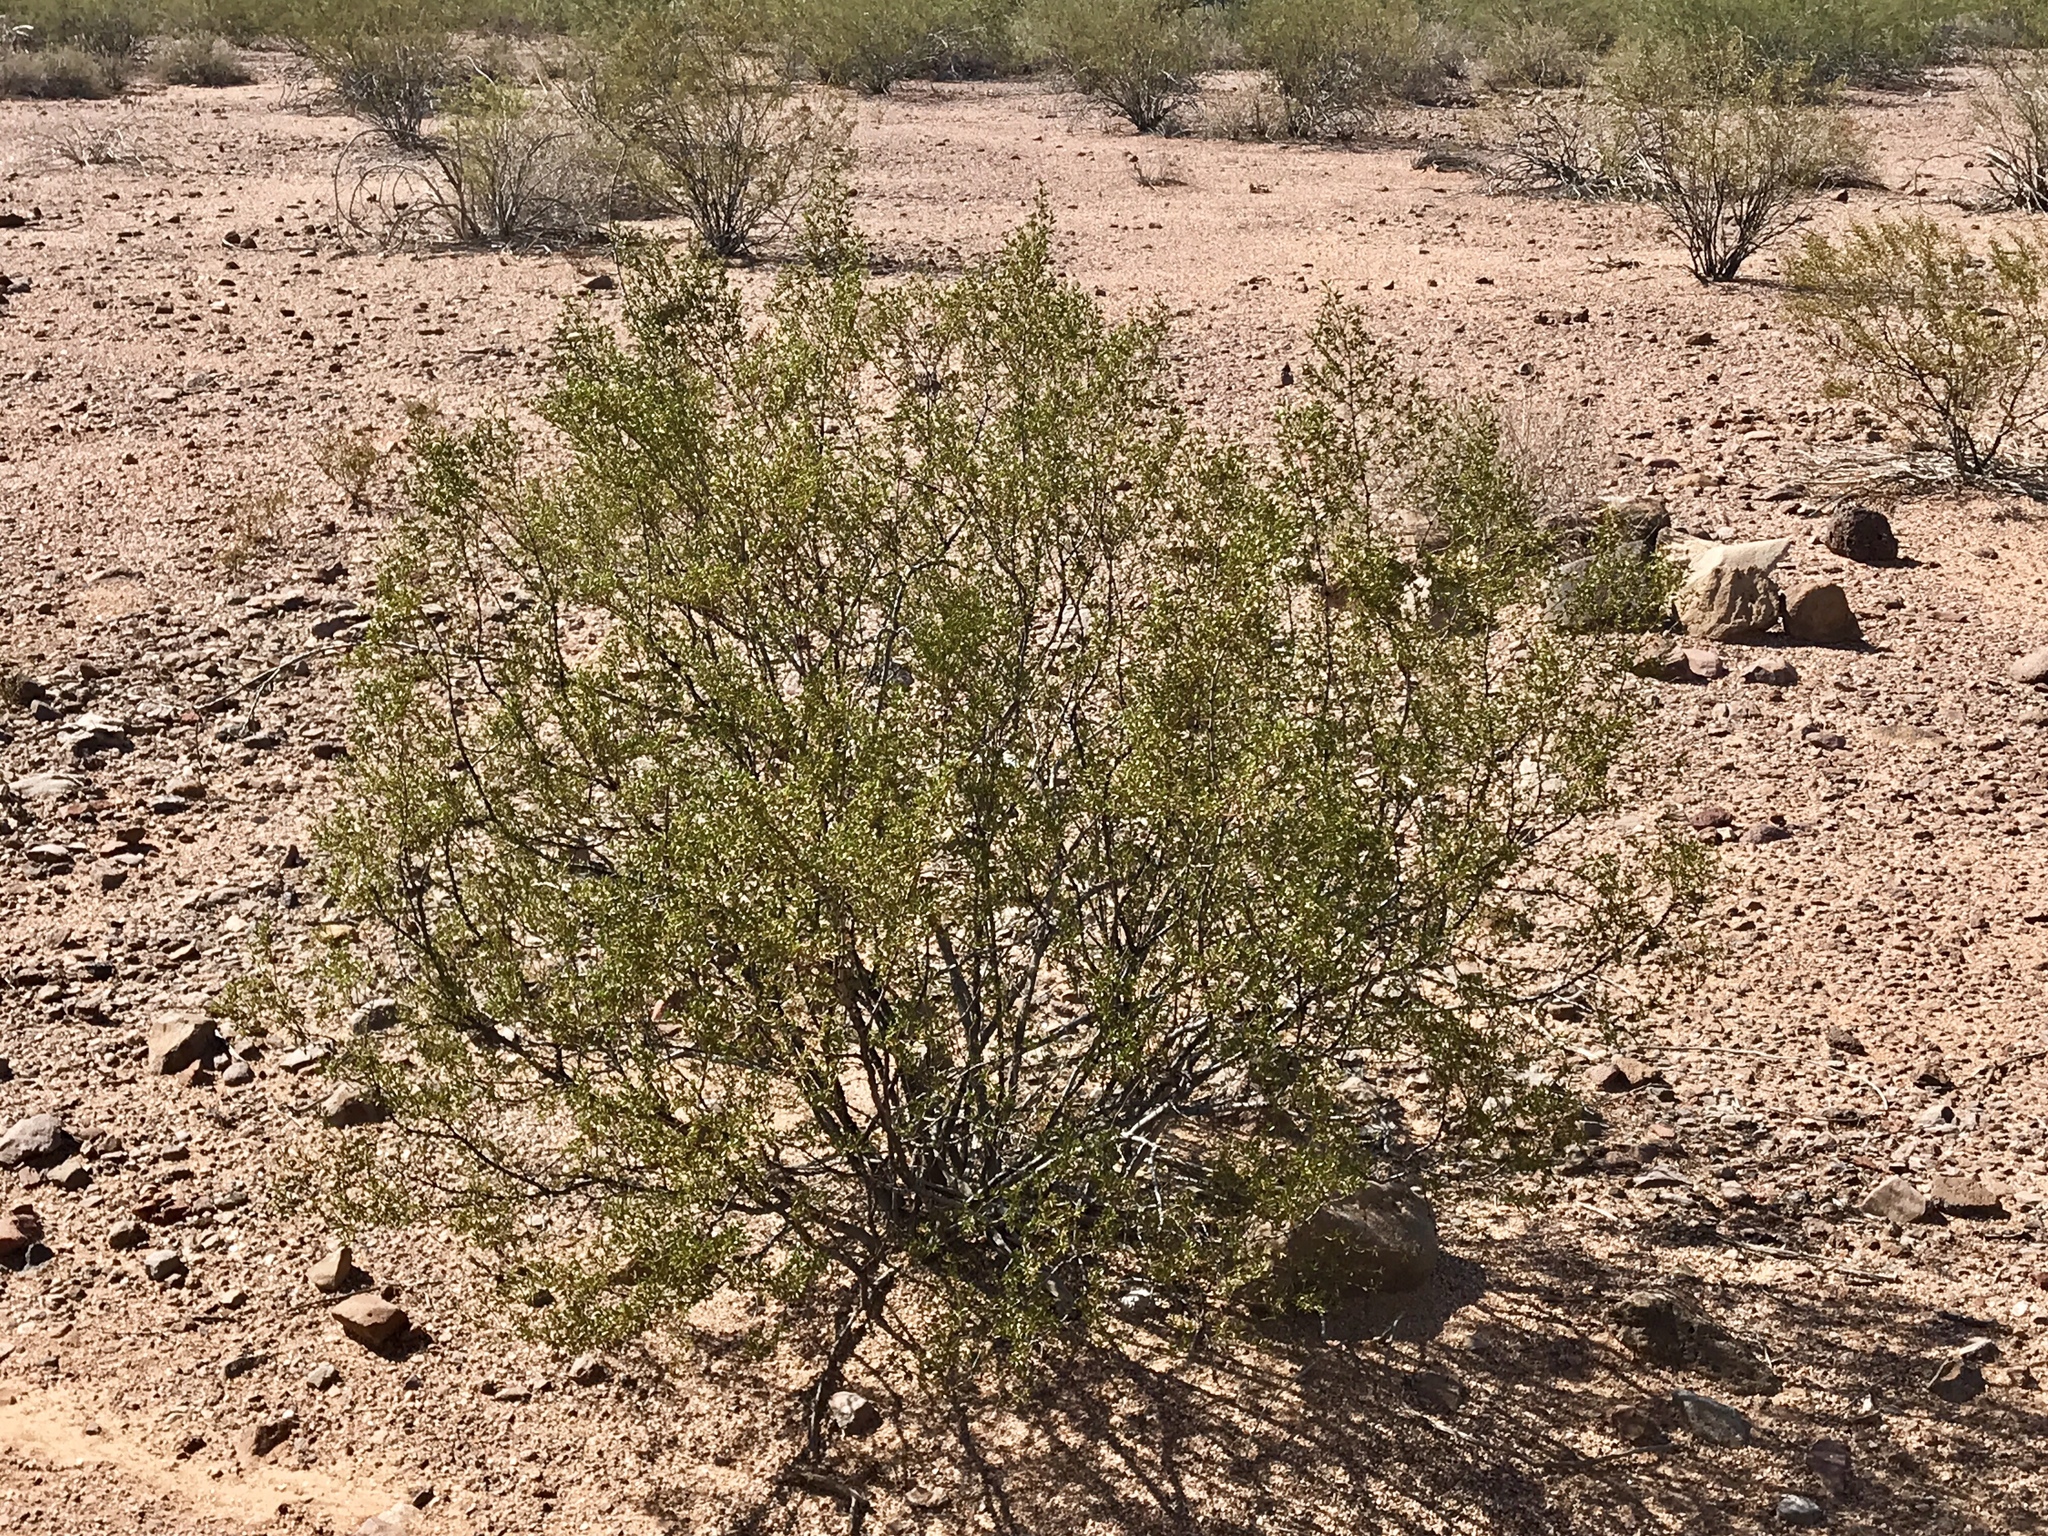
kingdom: Plantae
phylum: Tracheophyta
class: Magnoliopsida
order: Zygophyllales
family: Zygophyllaceae
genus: Larrea
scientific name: Larrea tridentata
